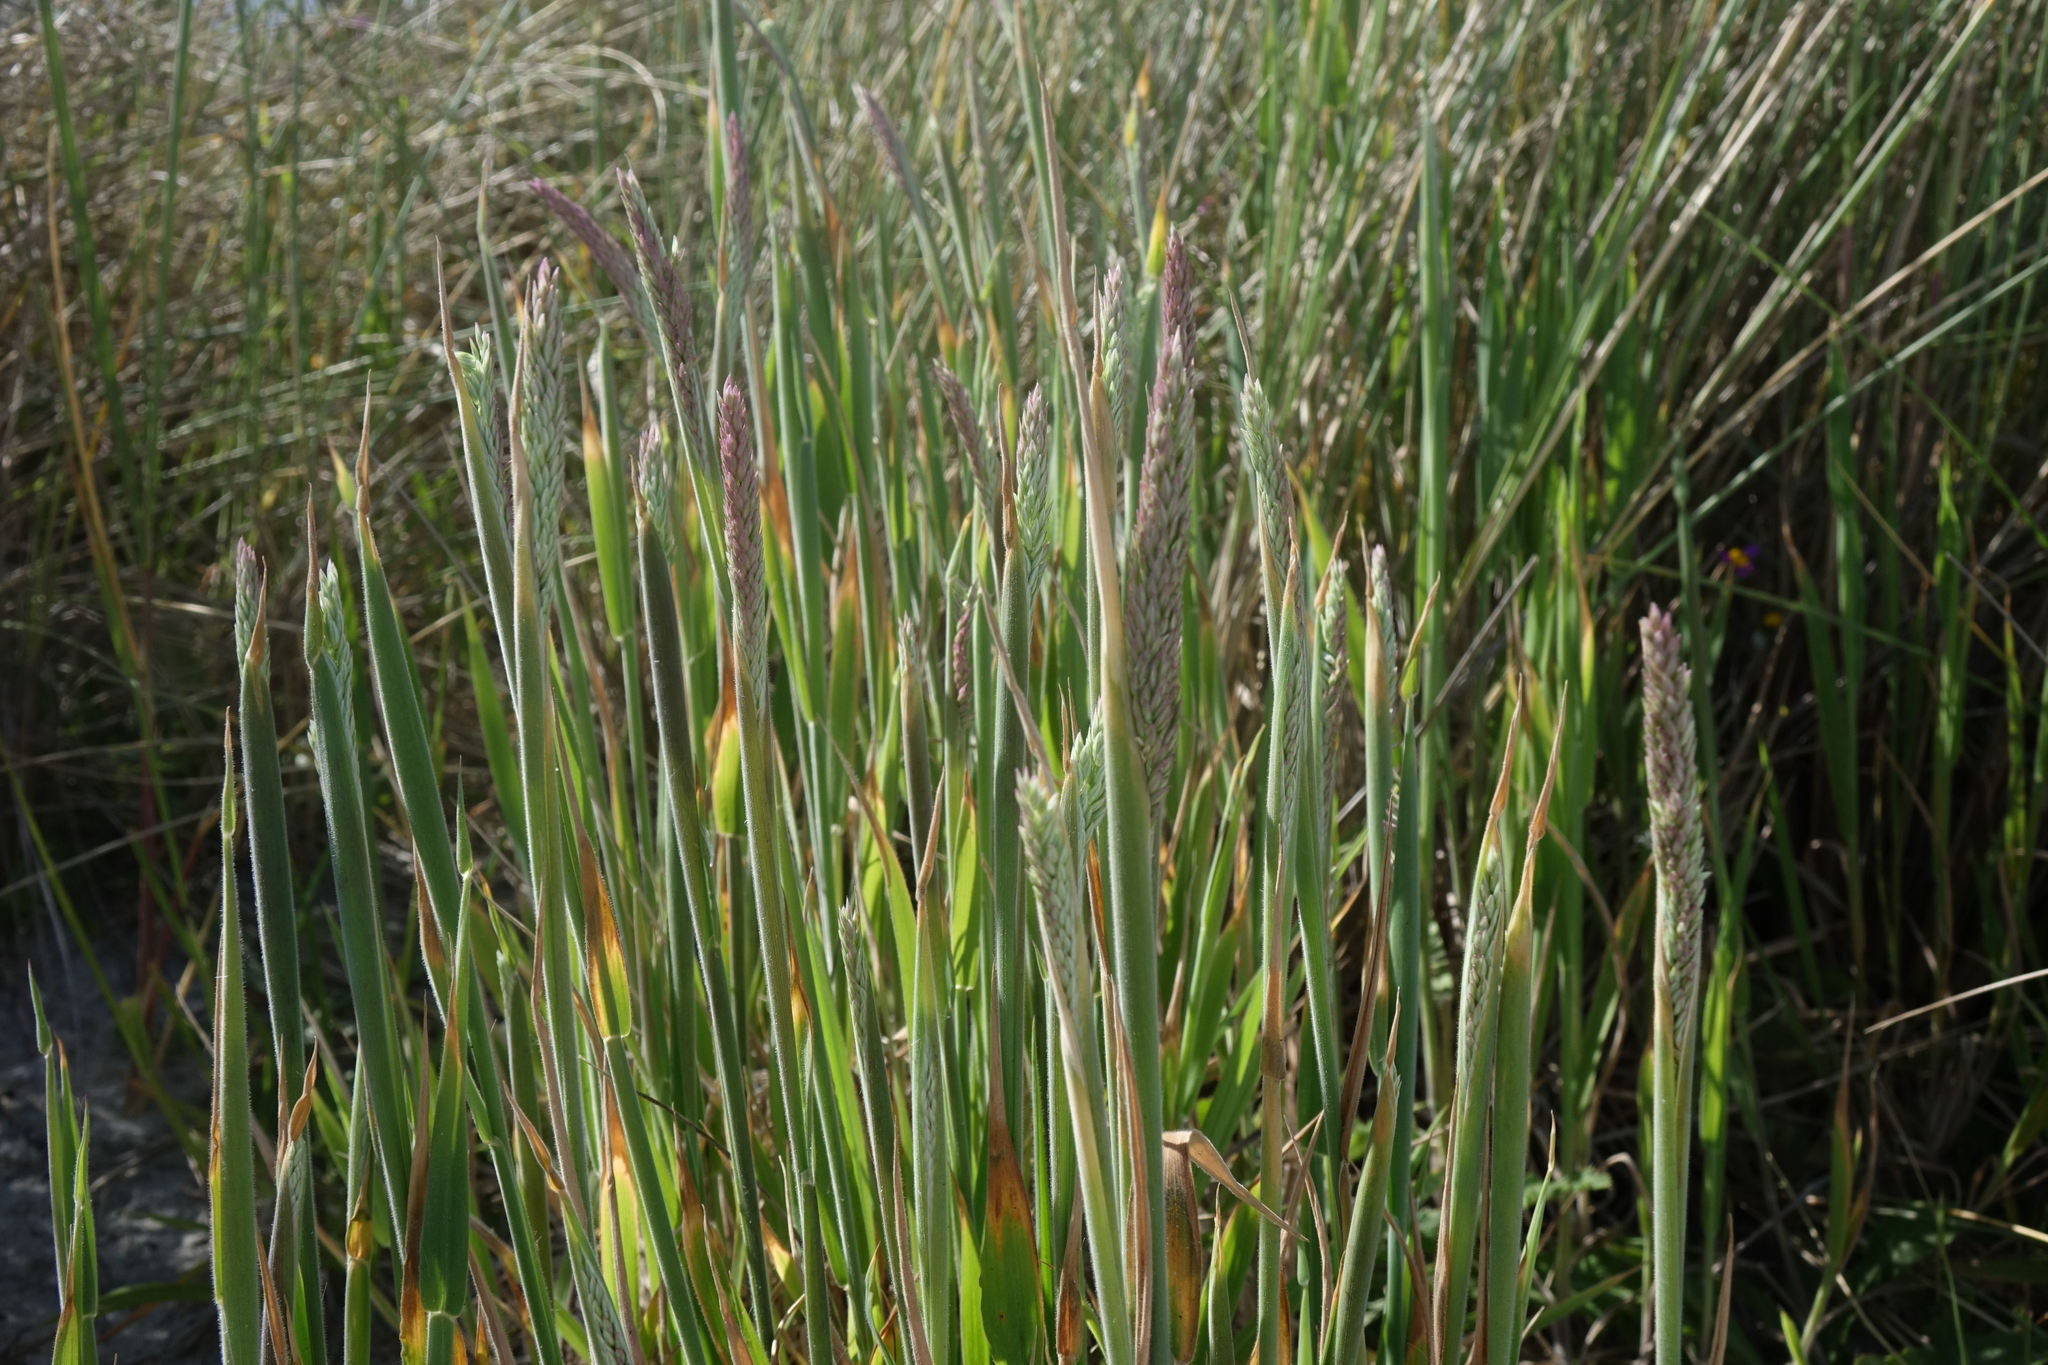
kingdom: Plantae
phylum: Tracheophyta
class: Liliopsida
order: Poales
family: Poaceae
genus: Holcus
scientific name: Holcus lanatus
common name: Yorkshire-fog
